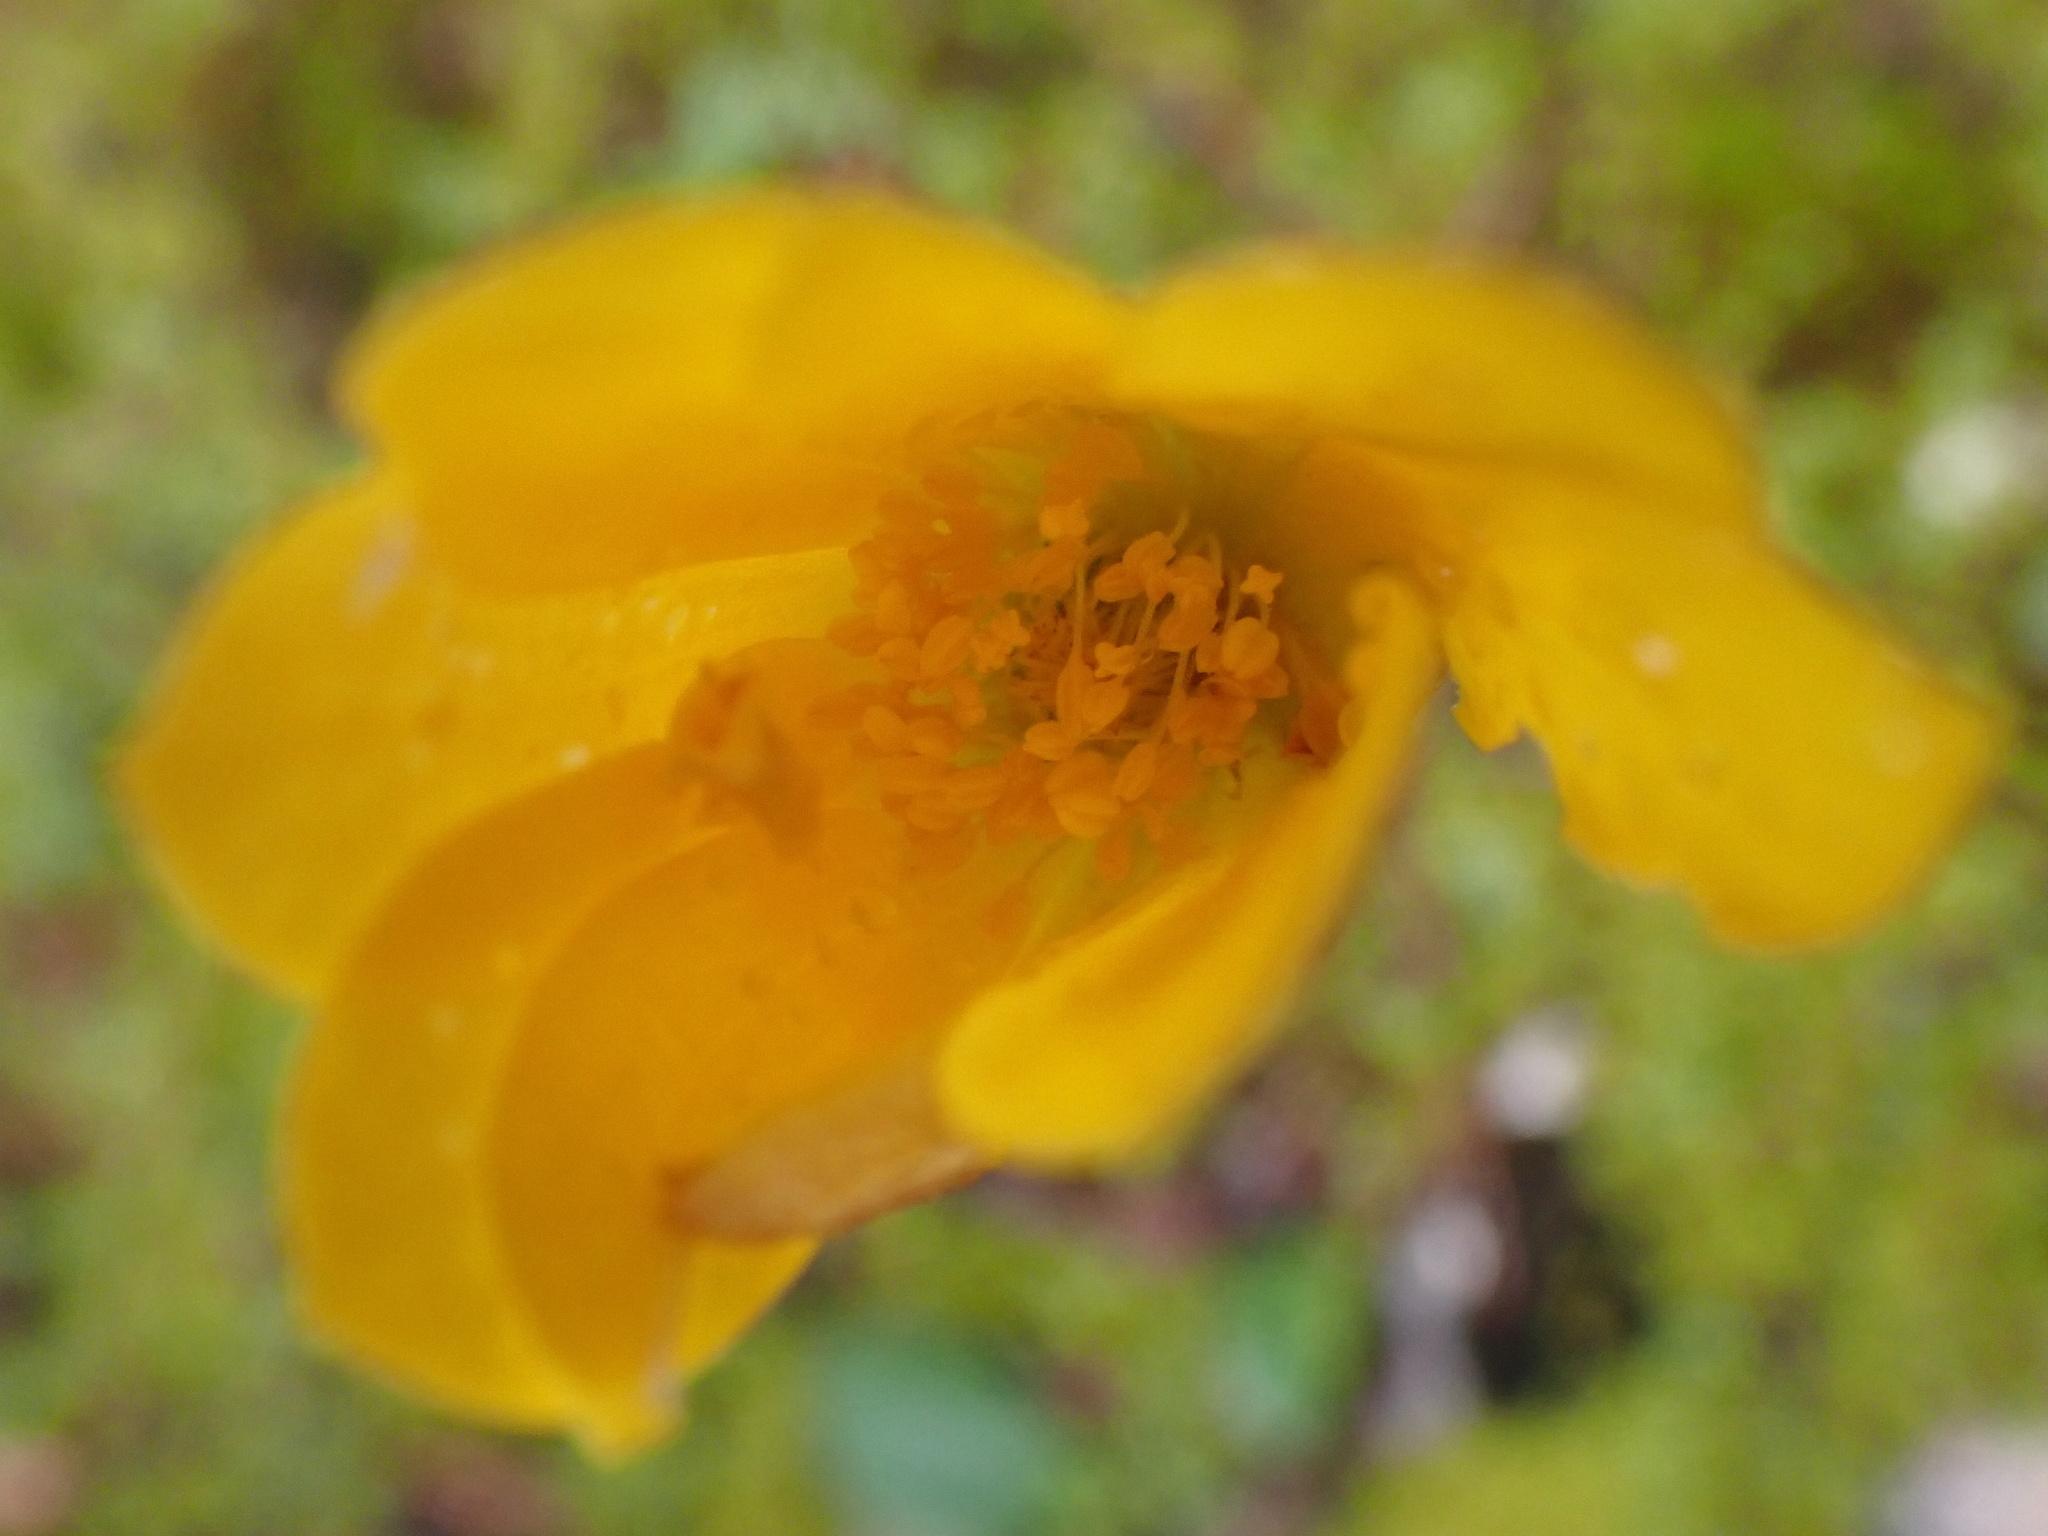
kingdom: Plantae
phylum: Tracheophyta
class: Magnoliopsida
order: Ranunculales
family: Ranunculaceae
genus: Anemone
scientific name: Anemone palmata
